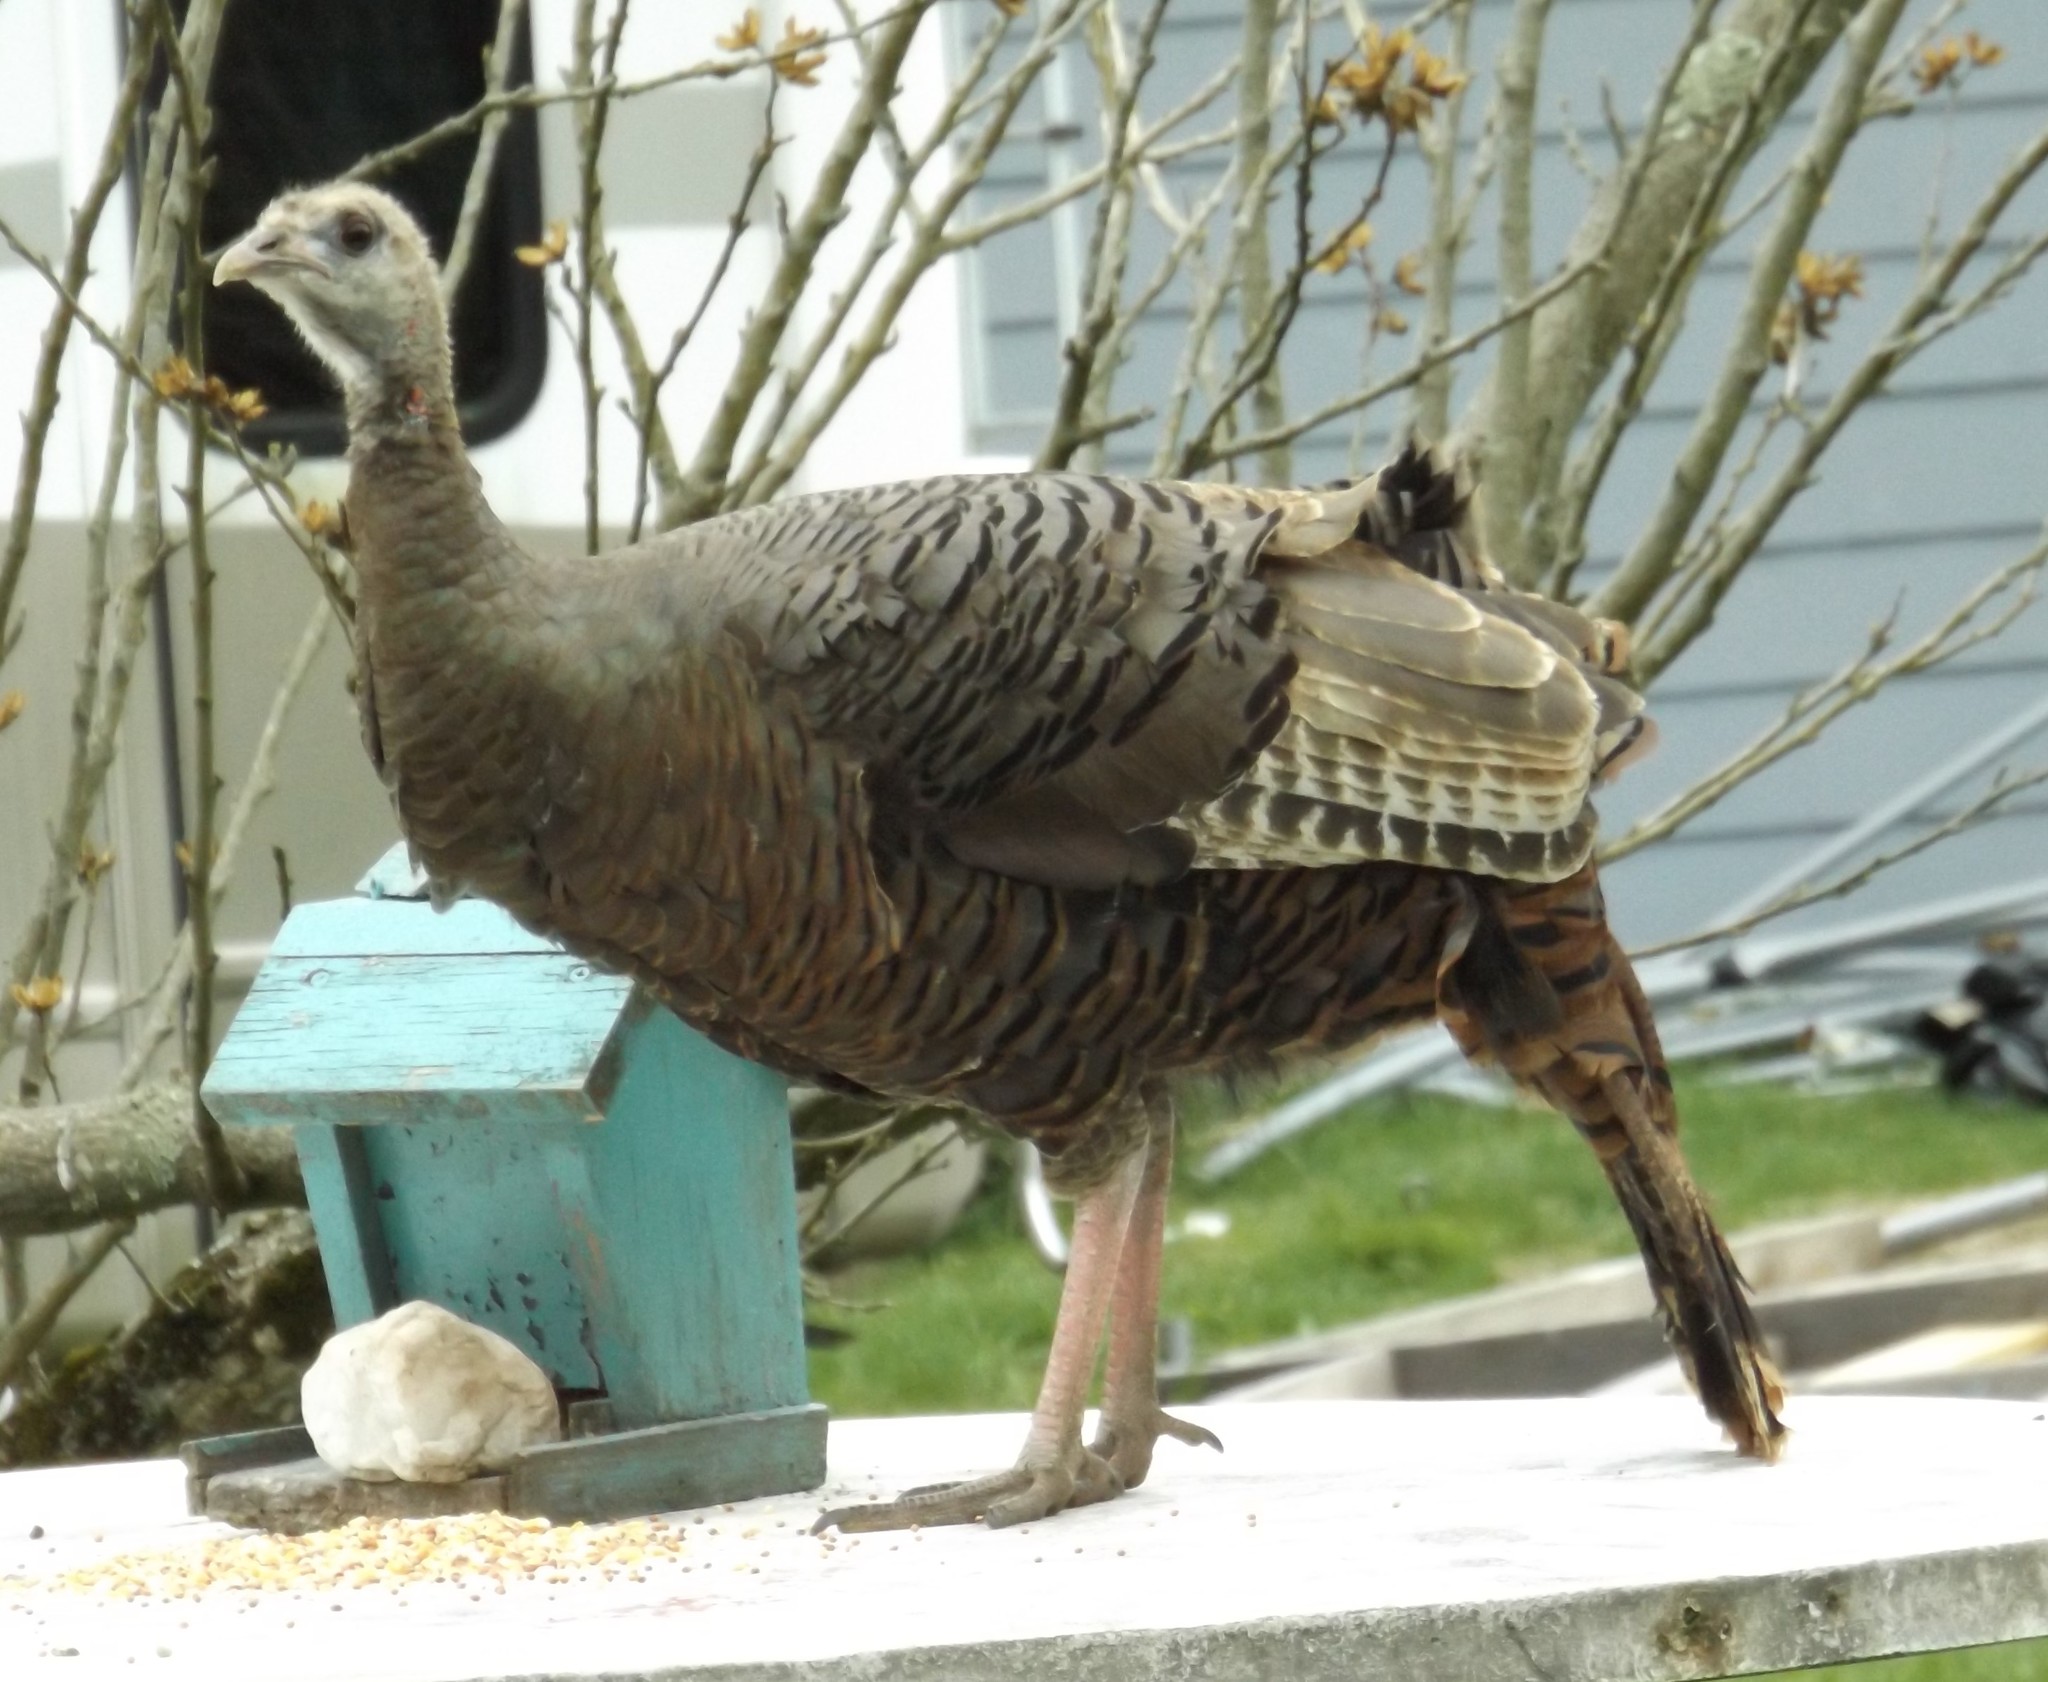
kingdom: Animalia
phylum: Chordata
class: Aves
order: Galliformes
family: Phasianidae
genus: Meleagris
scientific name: Meleagris gallopavo
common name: Wild turkey
